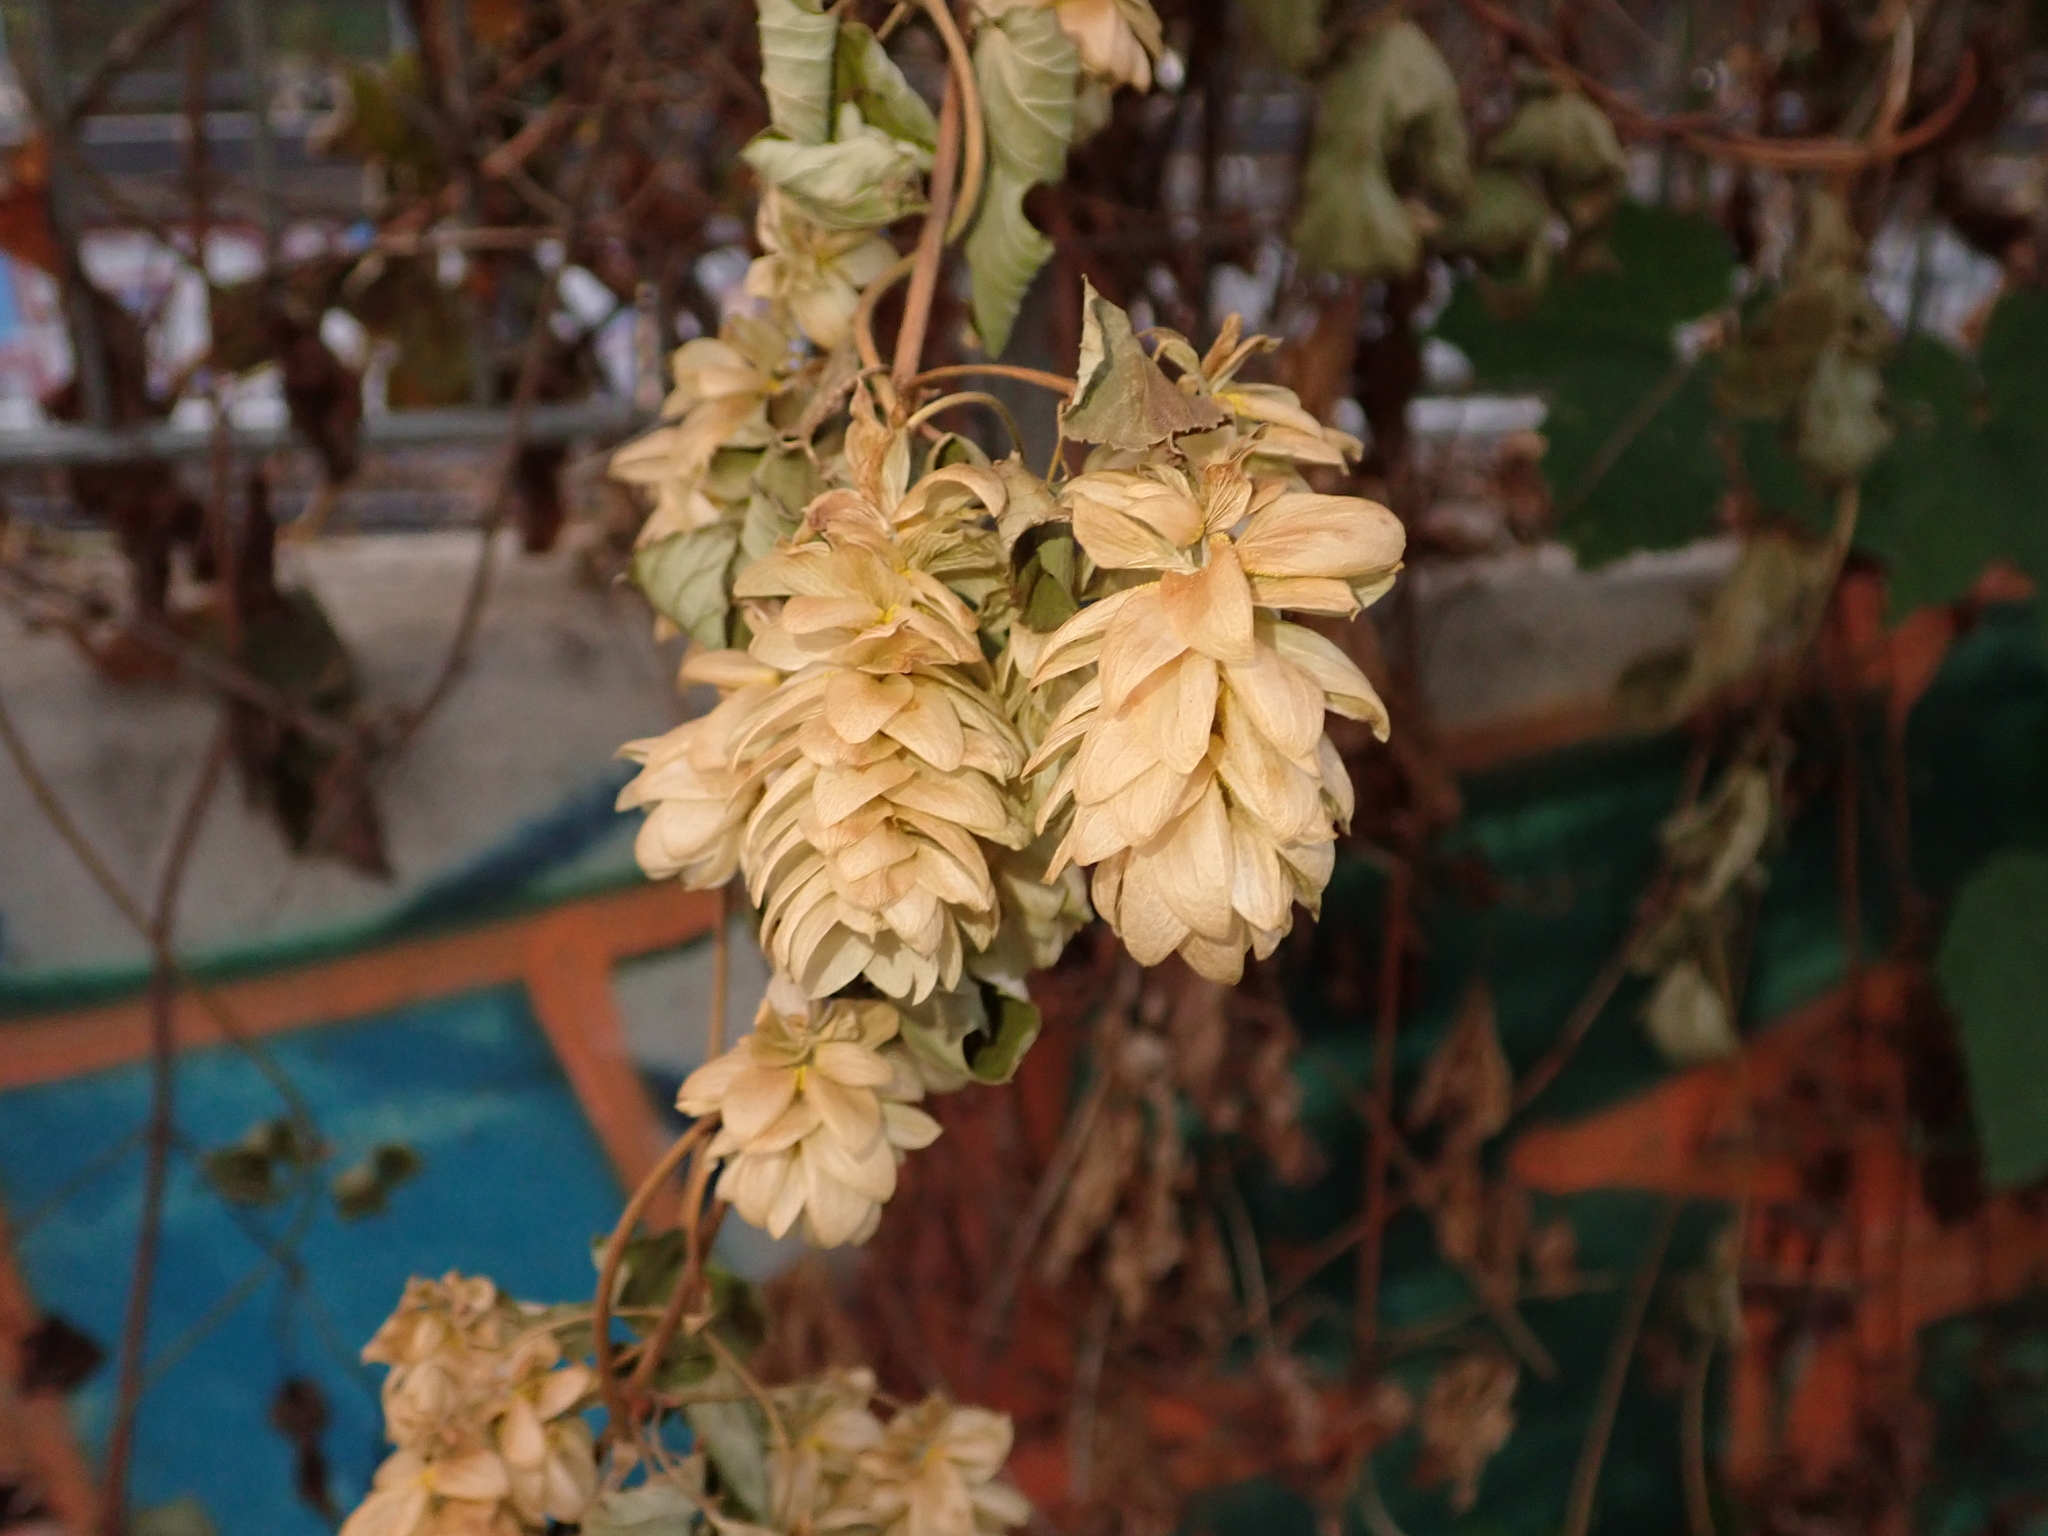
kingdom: Plantae
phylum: Tracheophyta
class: Magnoliopsida
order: Rosales
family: Cannabaceae
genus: Humulus
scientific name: Humulus lupulus
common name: Hop
